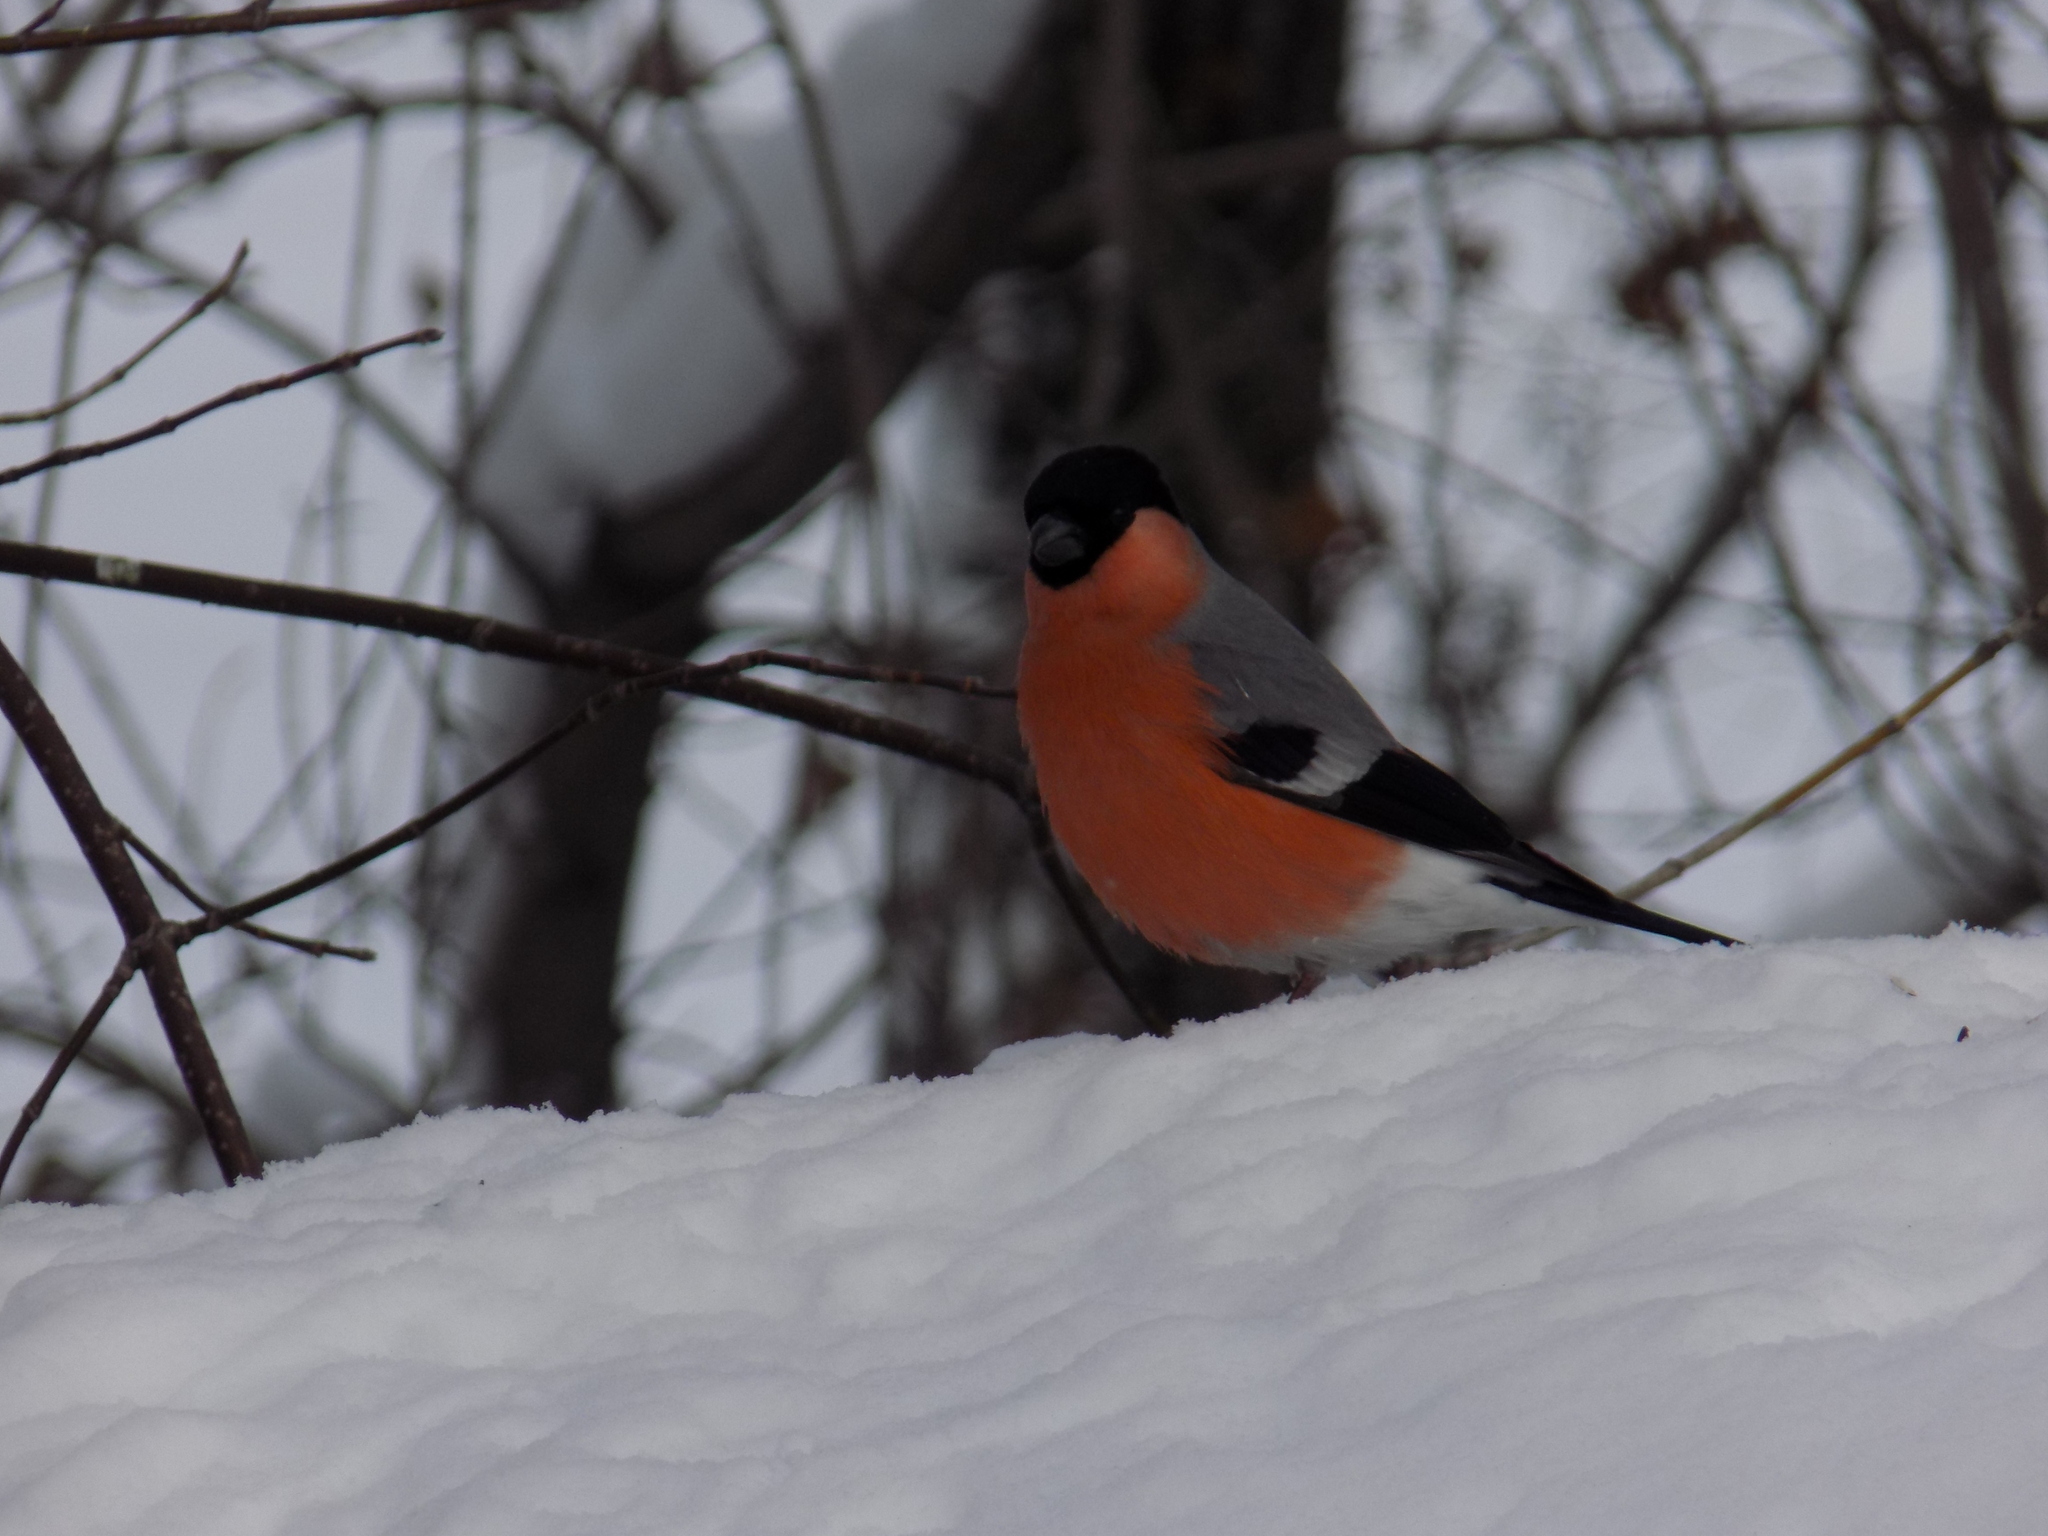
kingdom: Animalia
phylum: Chordata
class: Aves
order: Passeriformes
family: Fringillidae
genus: Pyrrhula
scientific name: Pyrrhula pyrrhula
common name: Eurasian bullfinch
